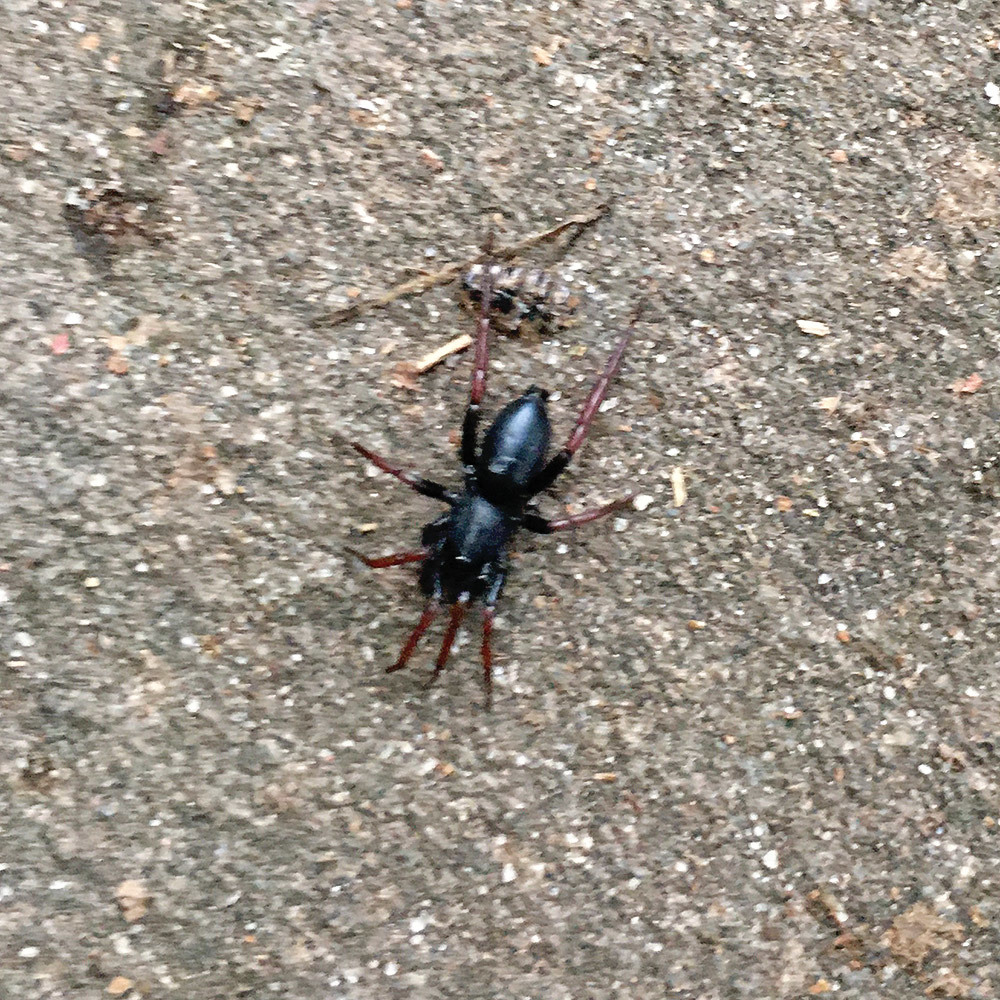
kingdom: Animalia
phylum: Arthropoda
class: Arachnida
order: Araneae
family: Gnaphosidae
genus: Trachyzelotes
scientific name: Trachyzelotes pedestris
